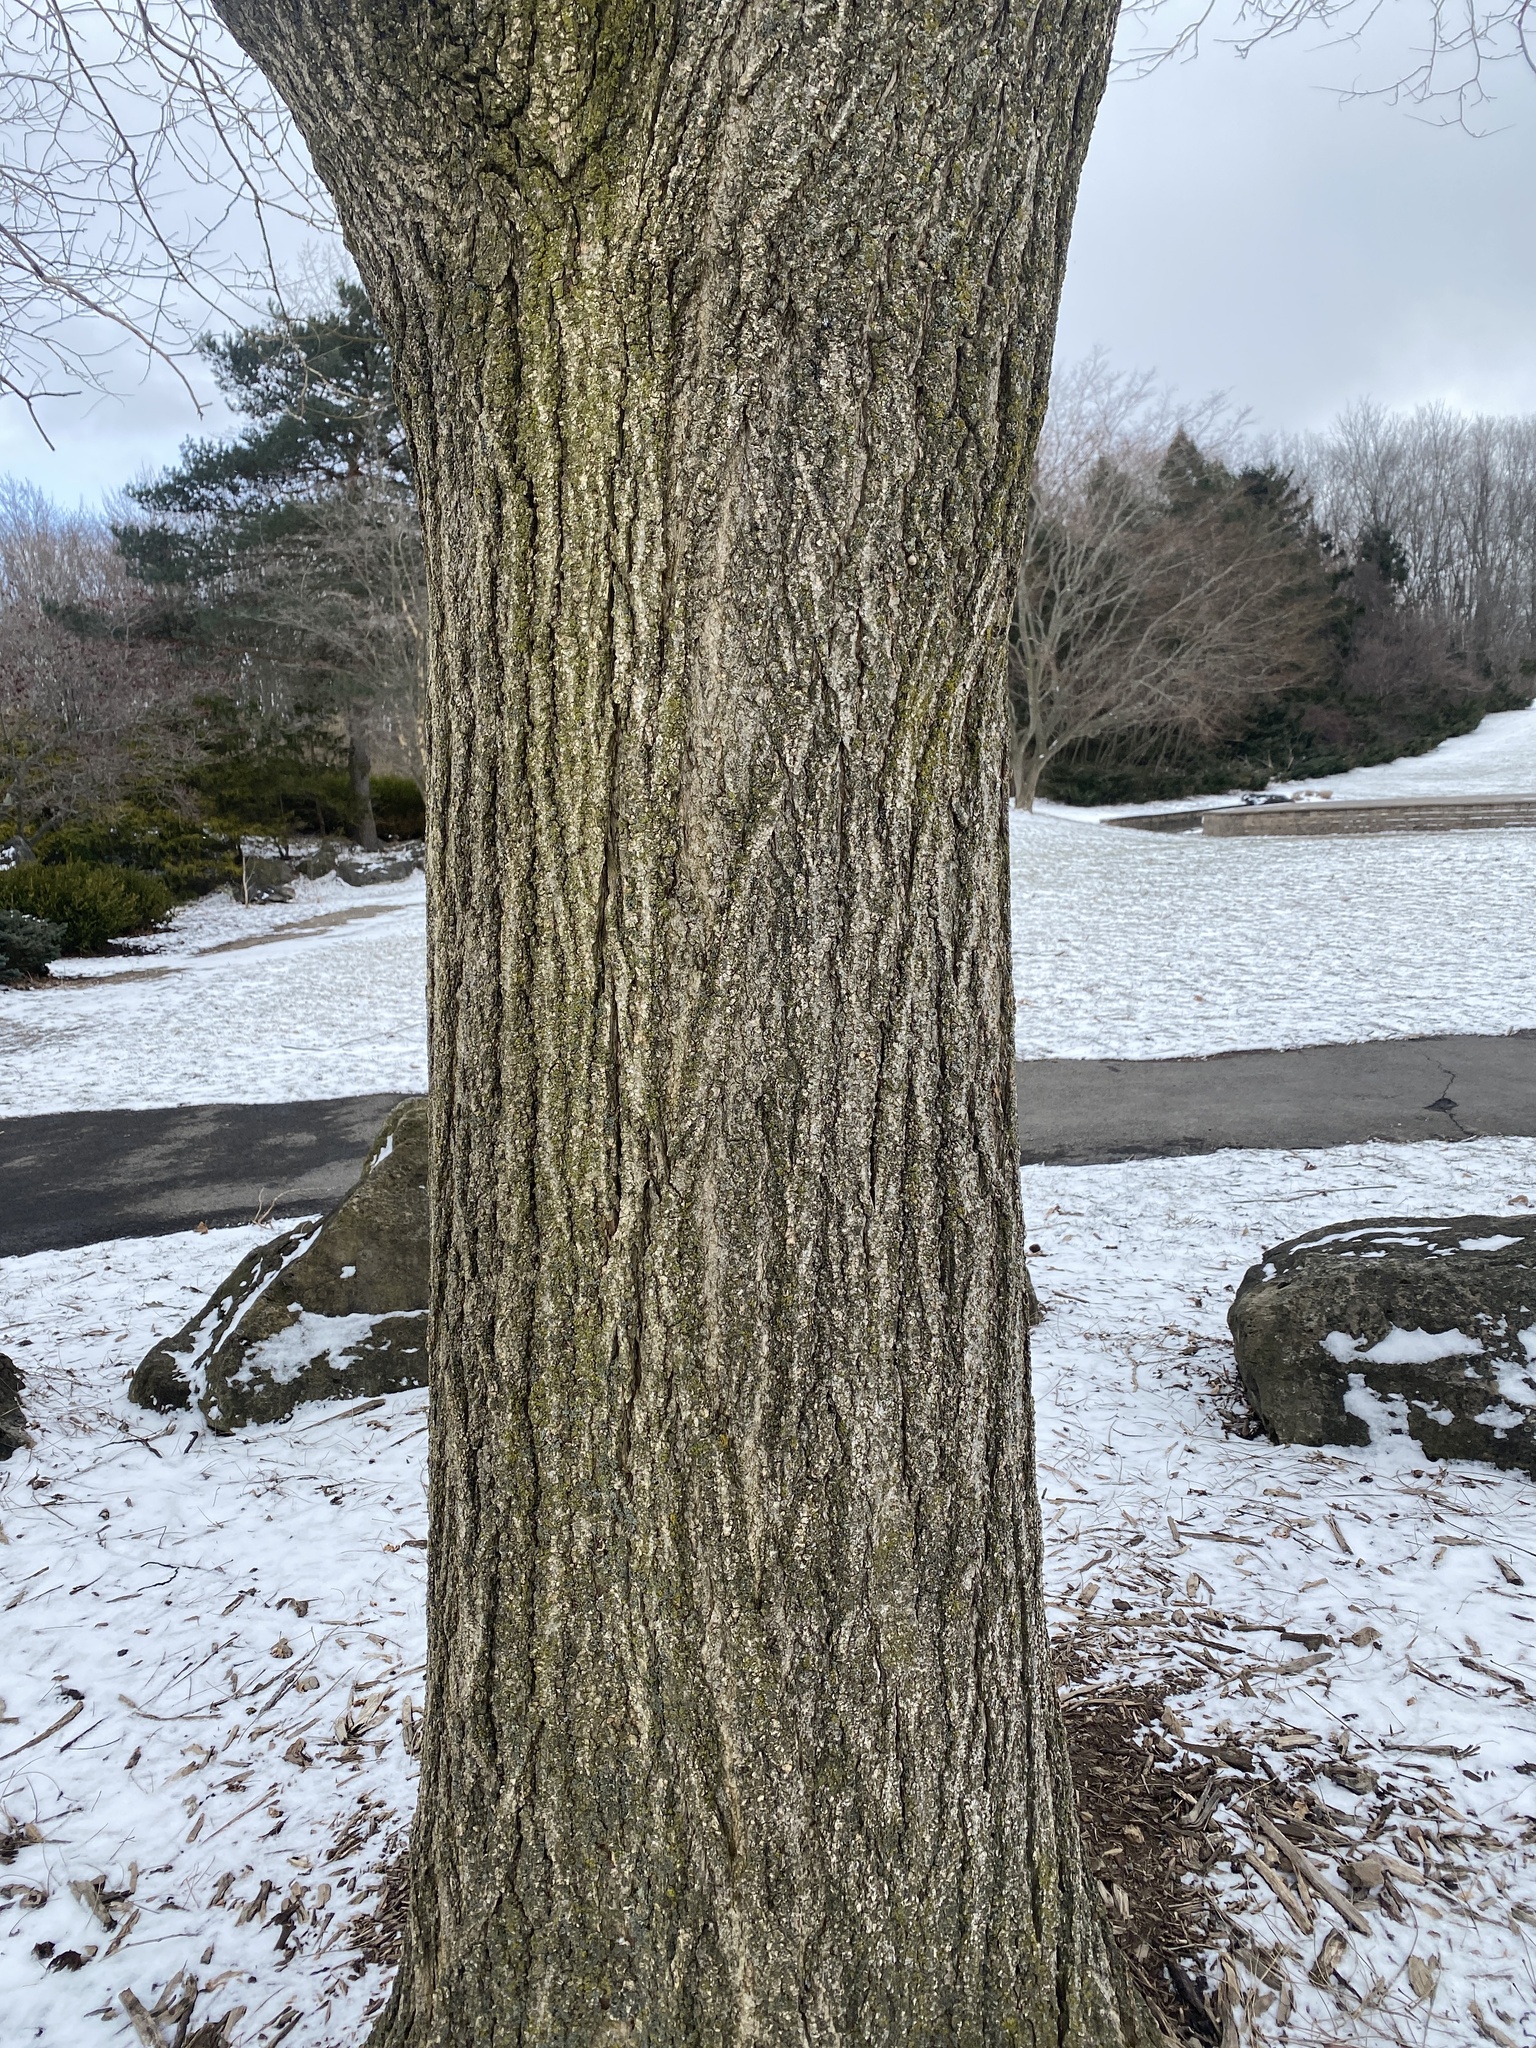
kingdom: Plantae
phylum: Tracheophyta
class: Magnoliopsida
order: Fagales
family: Juglandaceae
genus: Juglans
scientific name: Juglans nigra
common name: Black walnut
